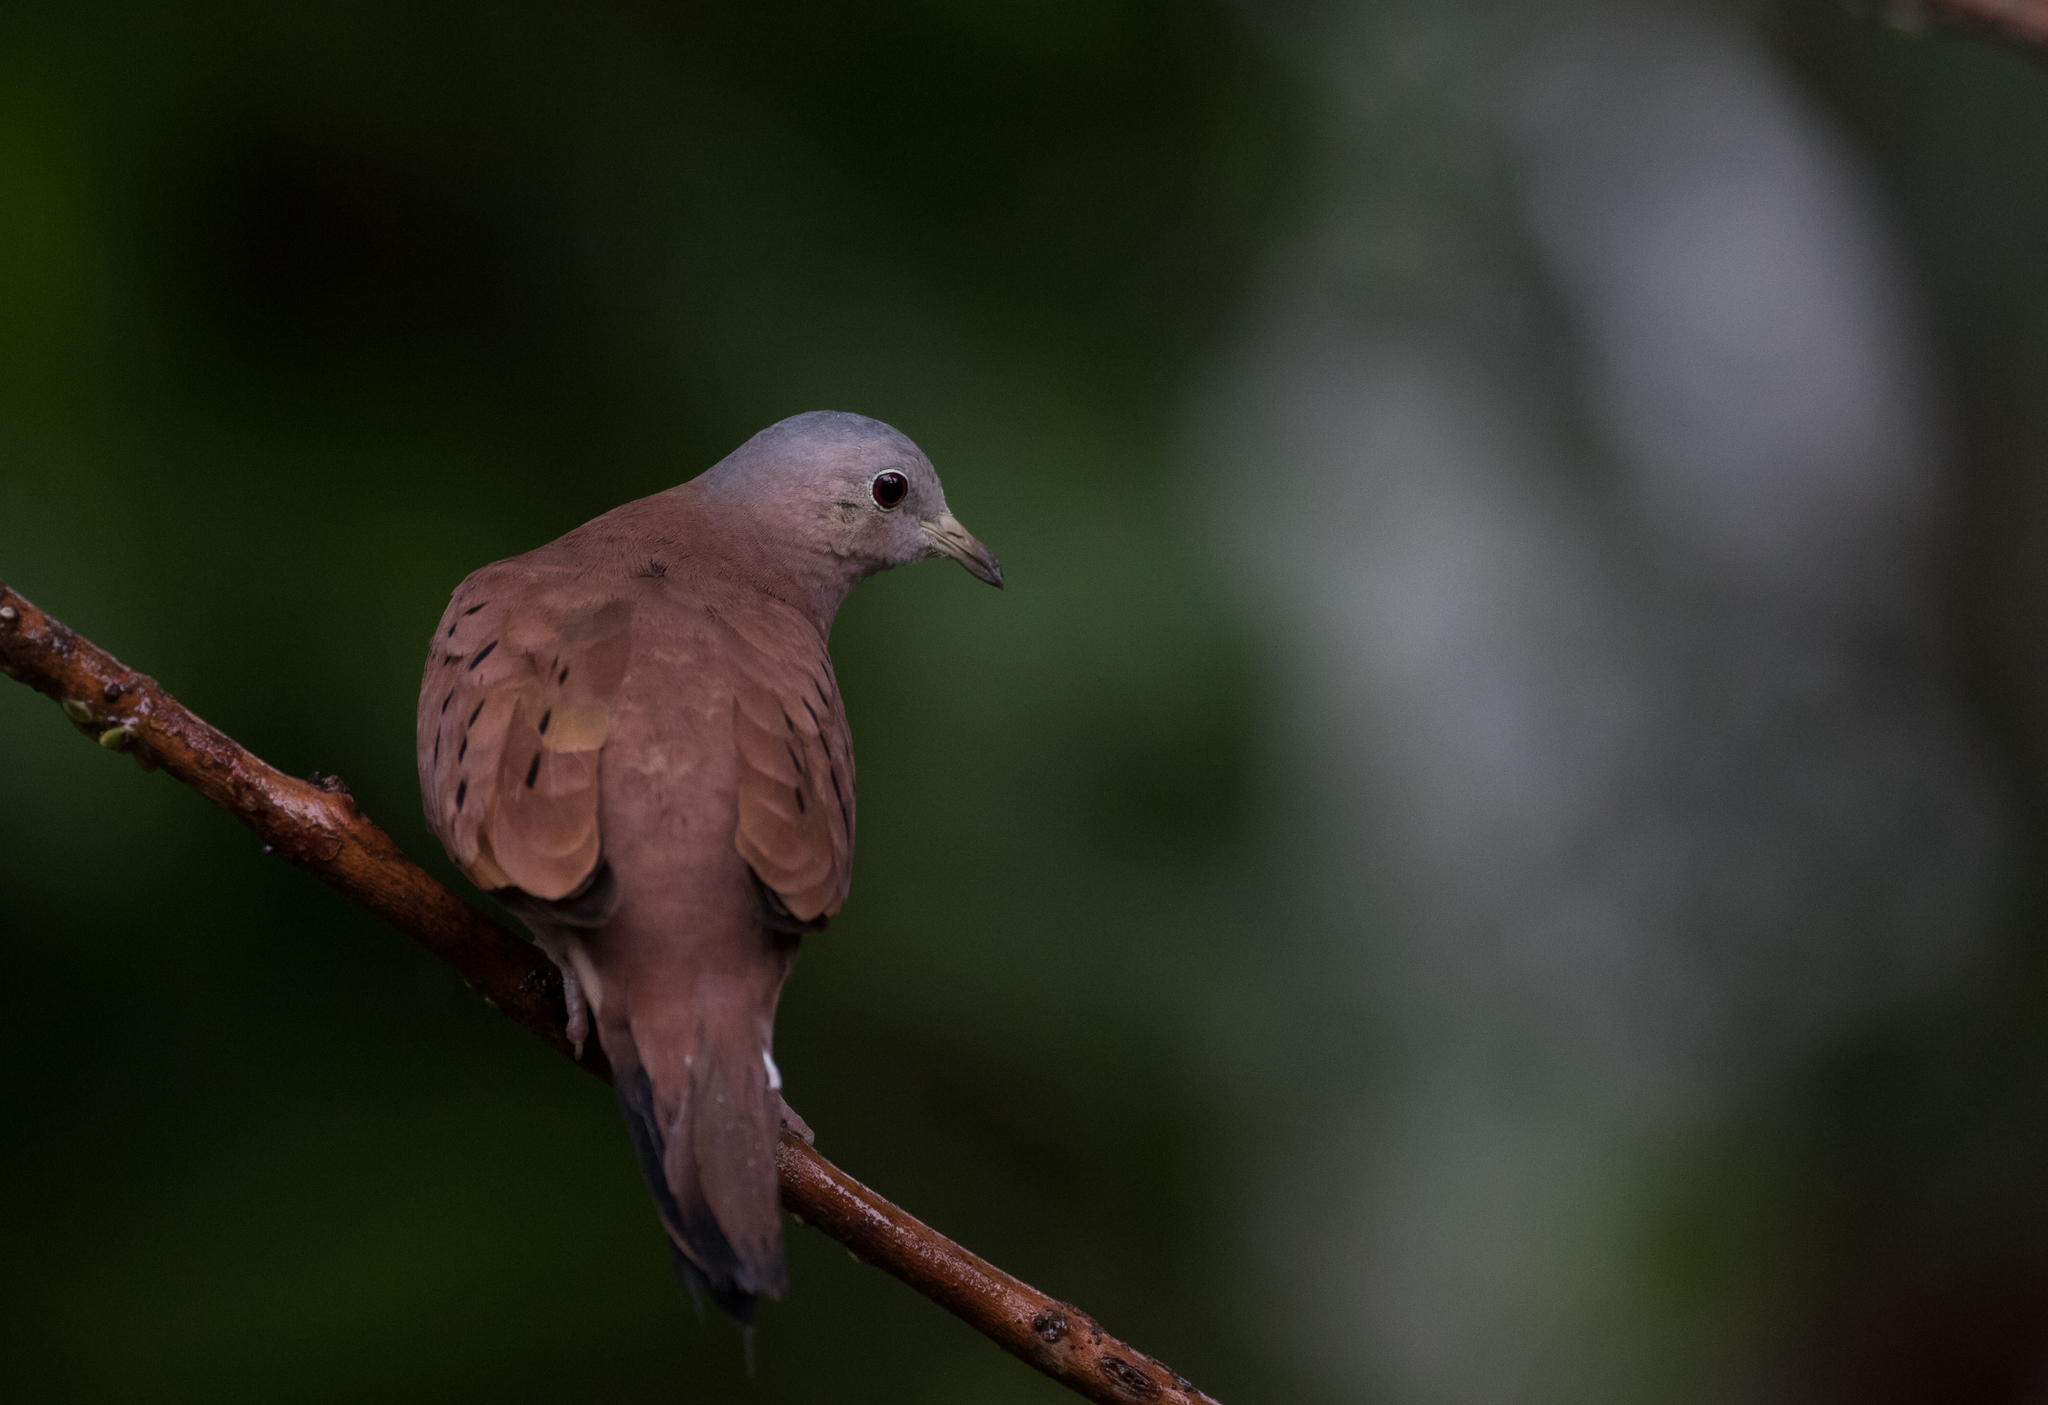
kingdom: Animalia
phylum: Chordata
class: Aves
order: Columbiformes
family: Columbidae
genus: Columbina
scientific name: Columbina talpacoti
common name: Ruddy ground dove
